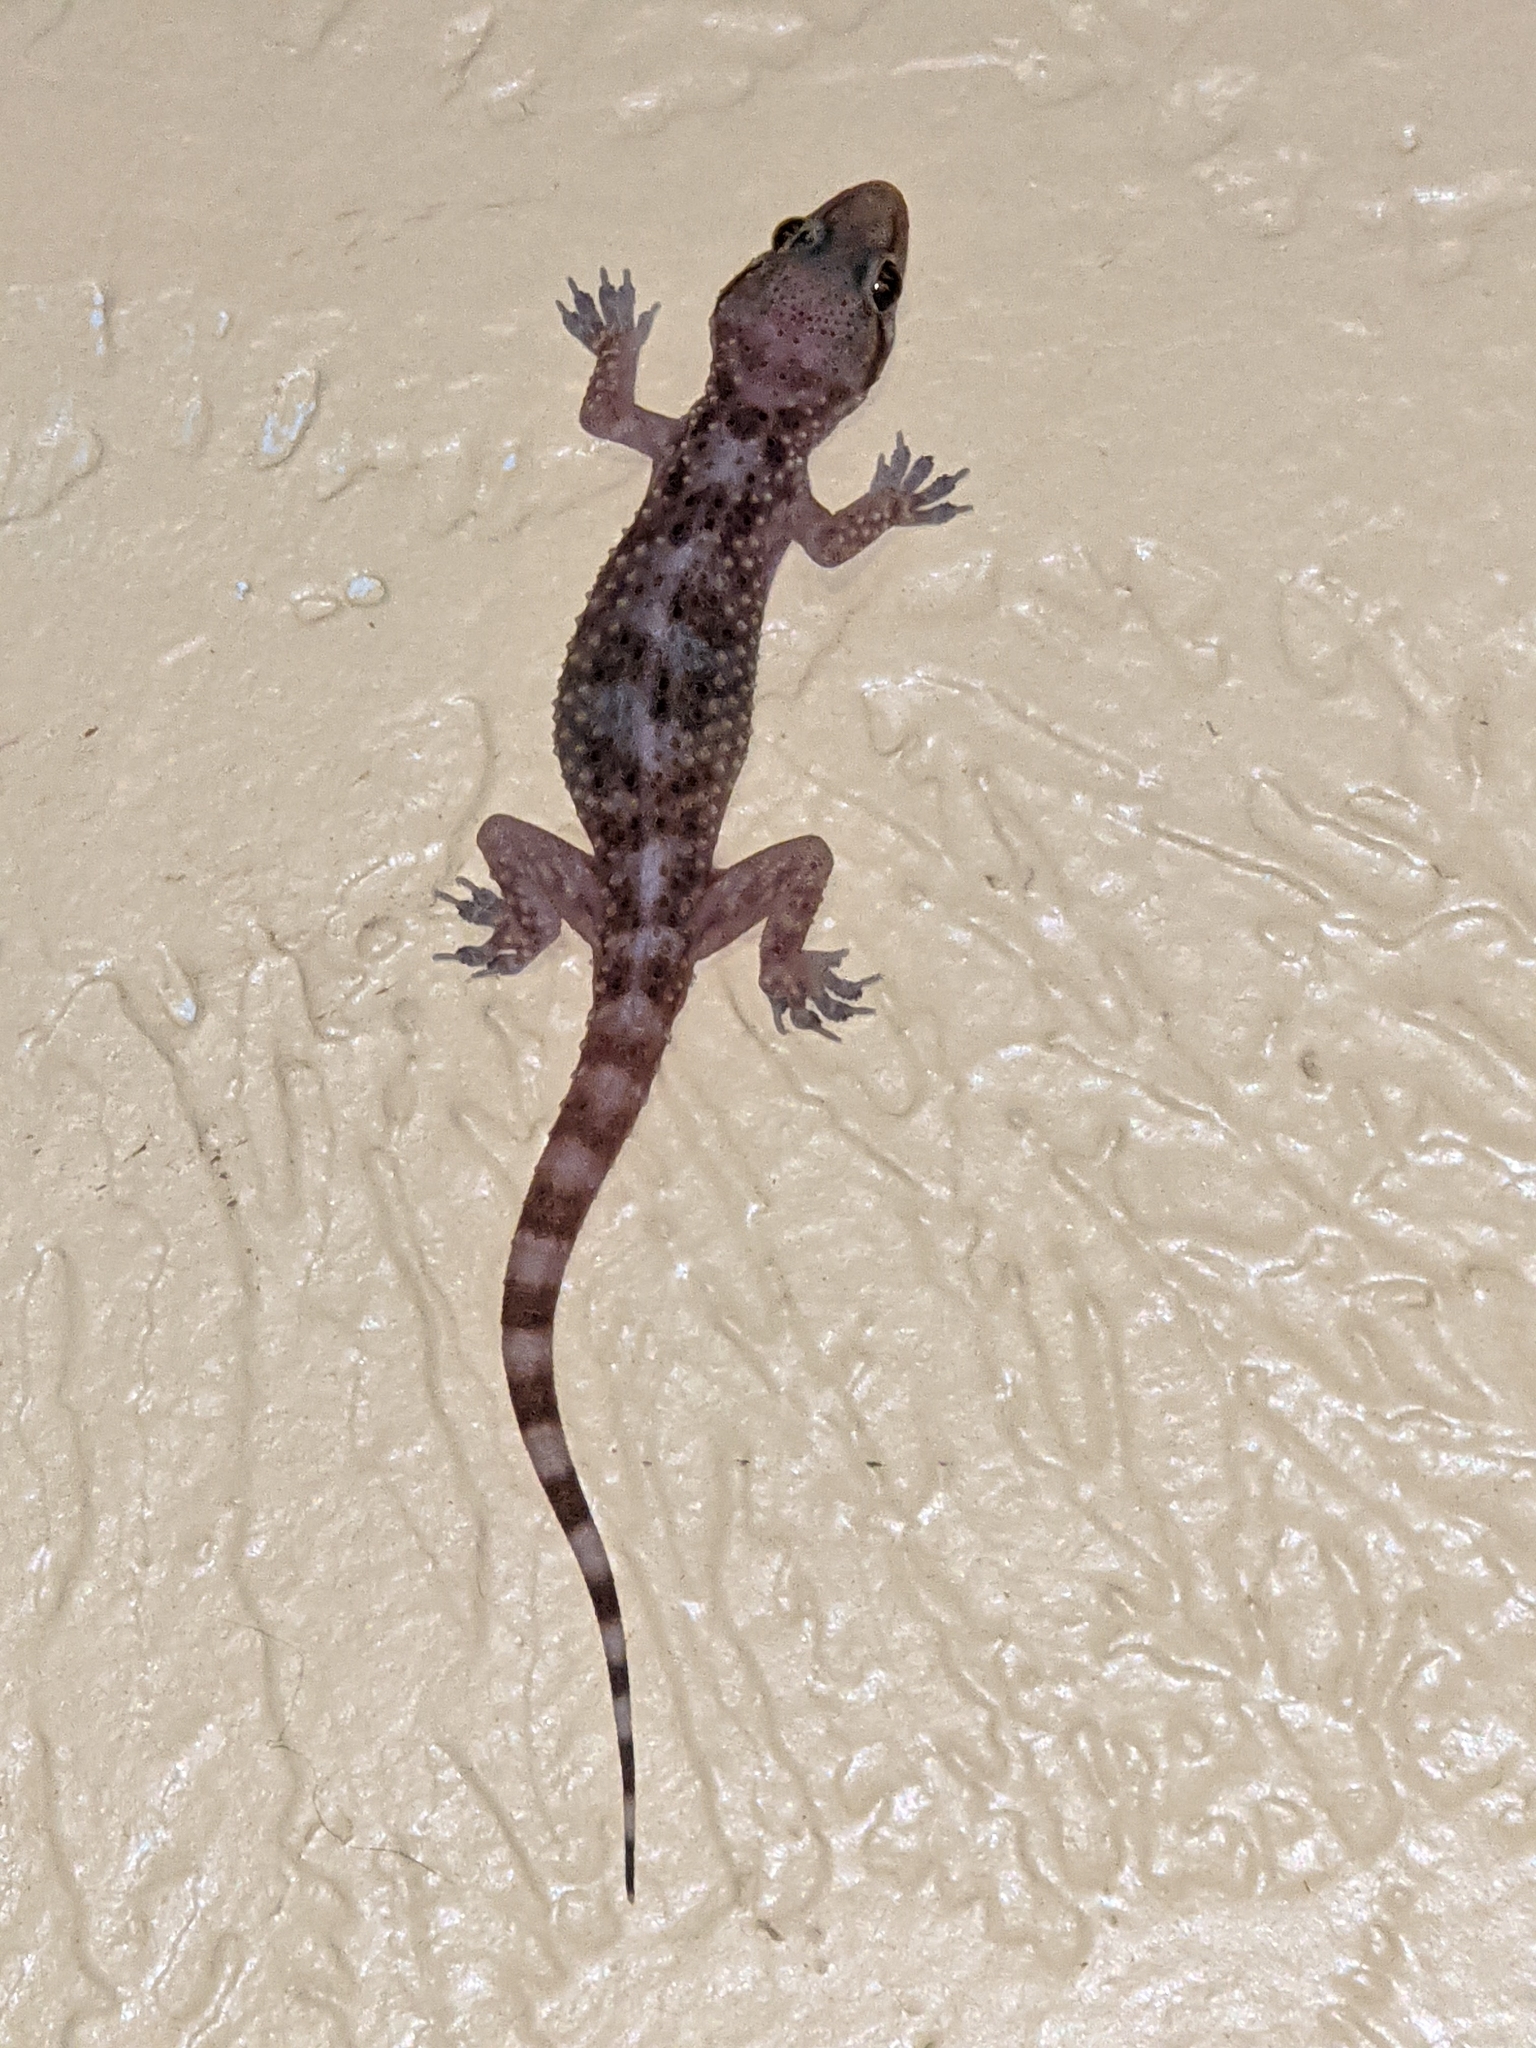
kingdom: Animalia
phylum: Chordata
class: Squamata
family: Gekkonidae
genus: Hemidactylus
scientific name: Hemidactylus turcicus
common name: Turkish gecko
